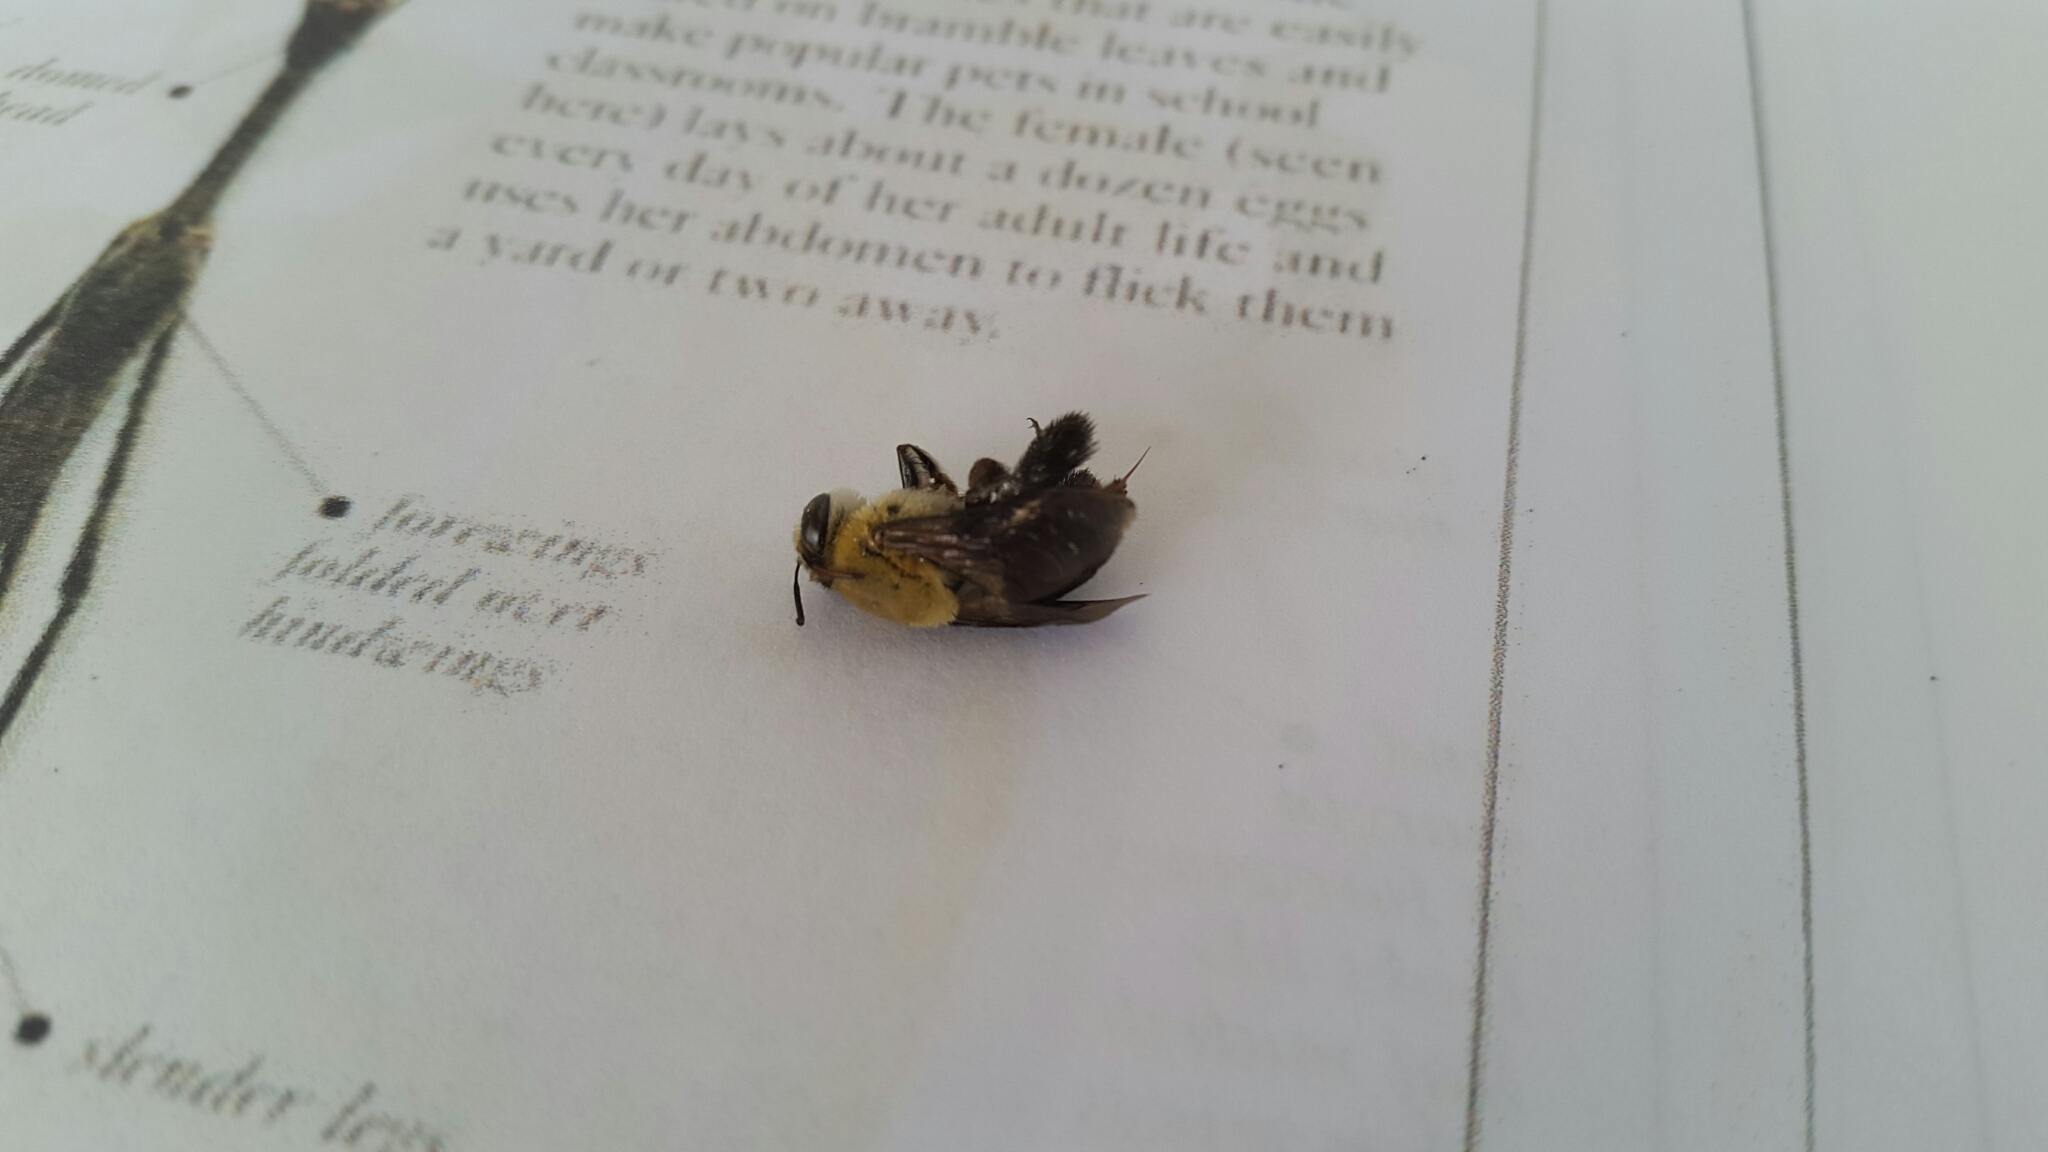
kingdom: Animalia
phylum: Arthropoda
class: Insecta
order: Hymenoptera
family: Apidae
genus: Centris
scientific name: Centris nitida
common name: Oil-collecting bee
